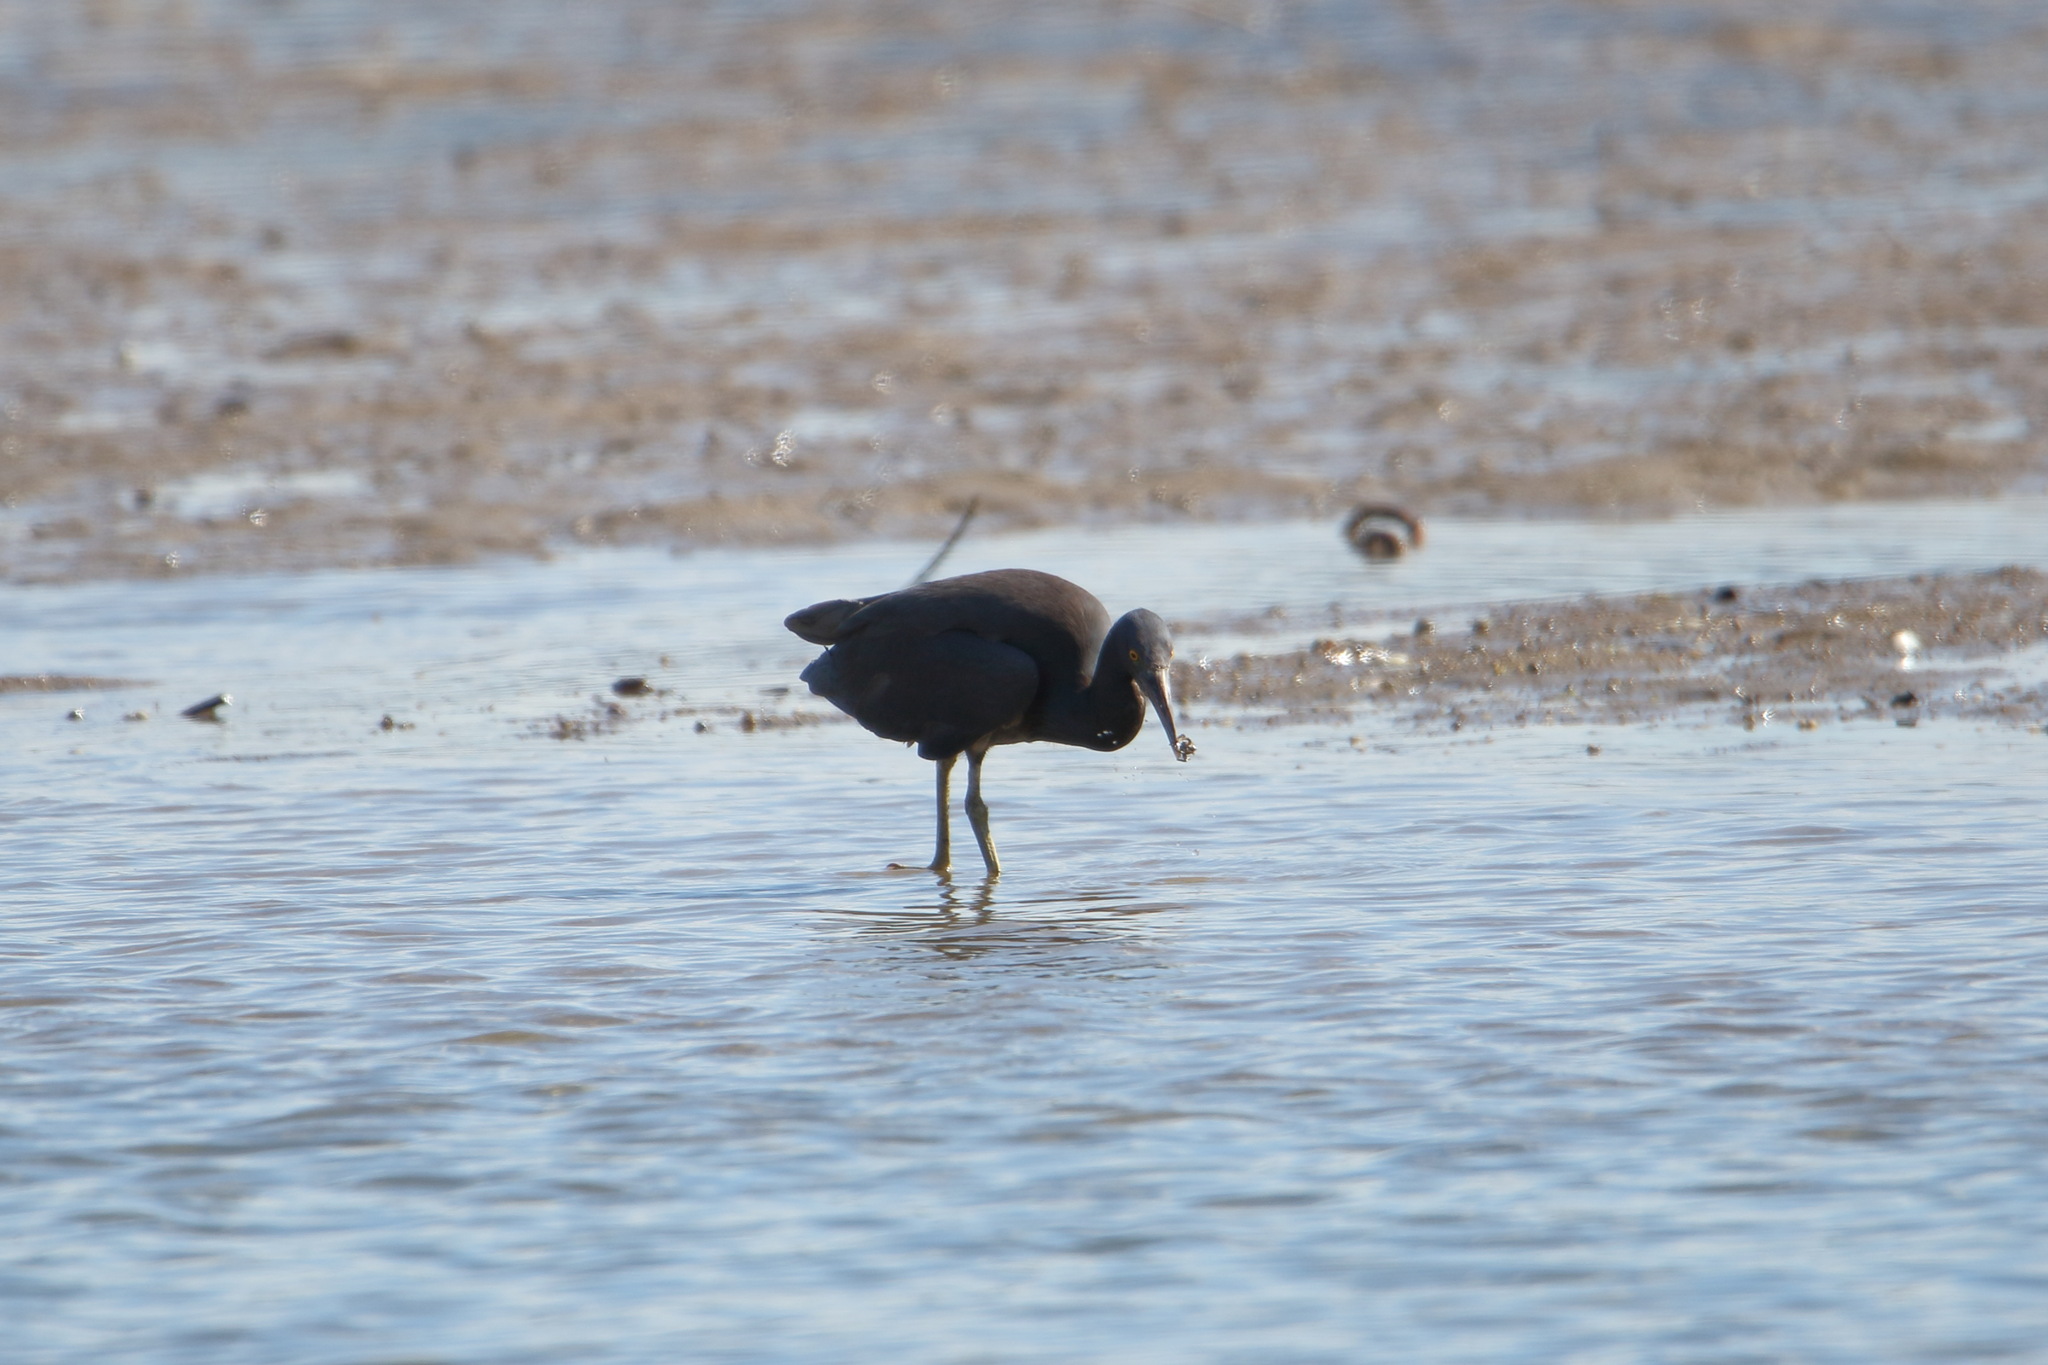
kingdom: Animalia
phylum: Chordata
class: Aves
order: Pelecaniformes
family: Ardeidae
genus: Egretta
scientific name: Egretta sacra
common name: Pacific reef heron
